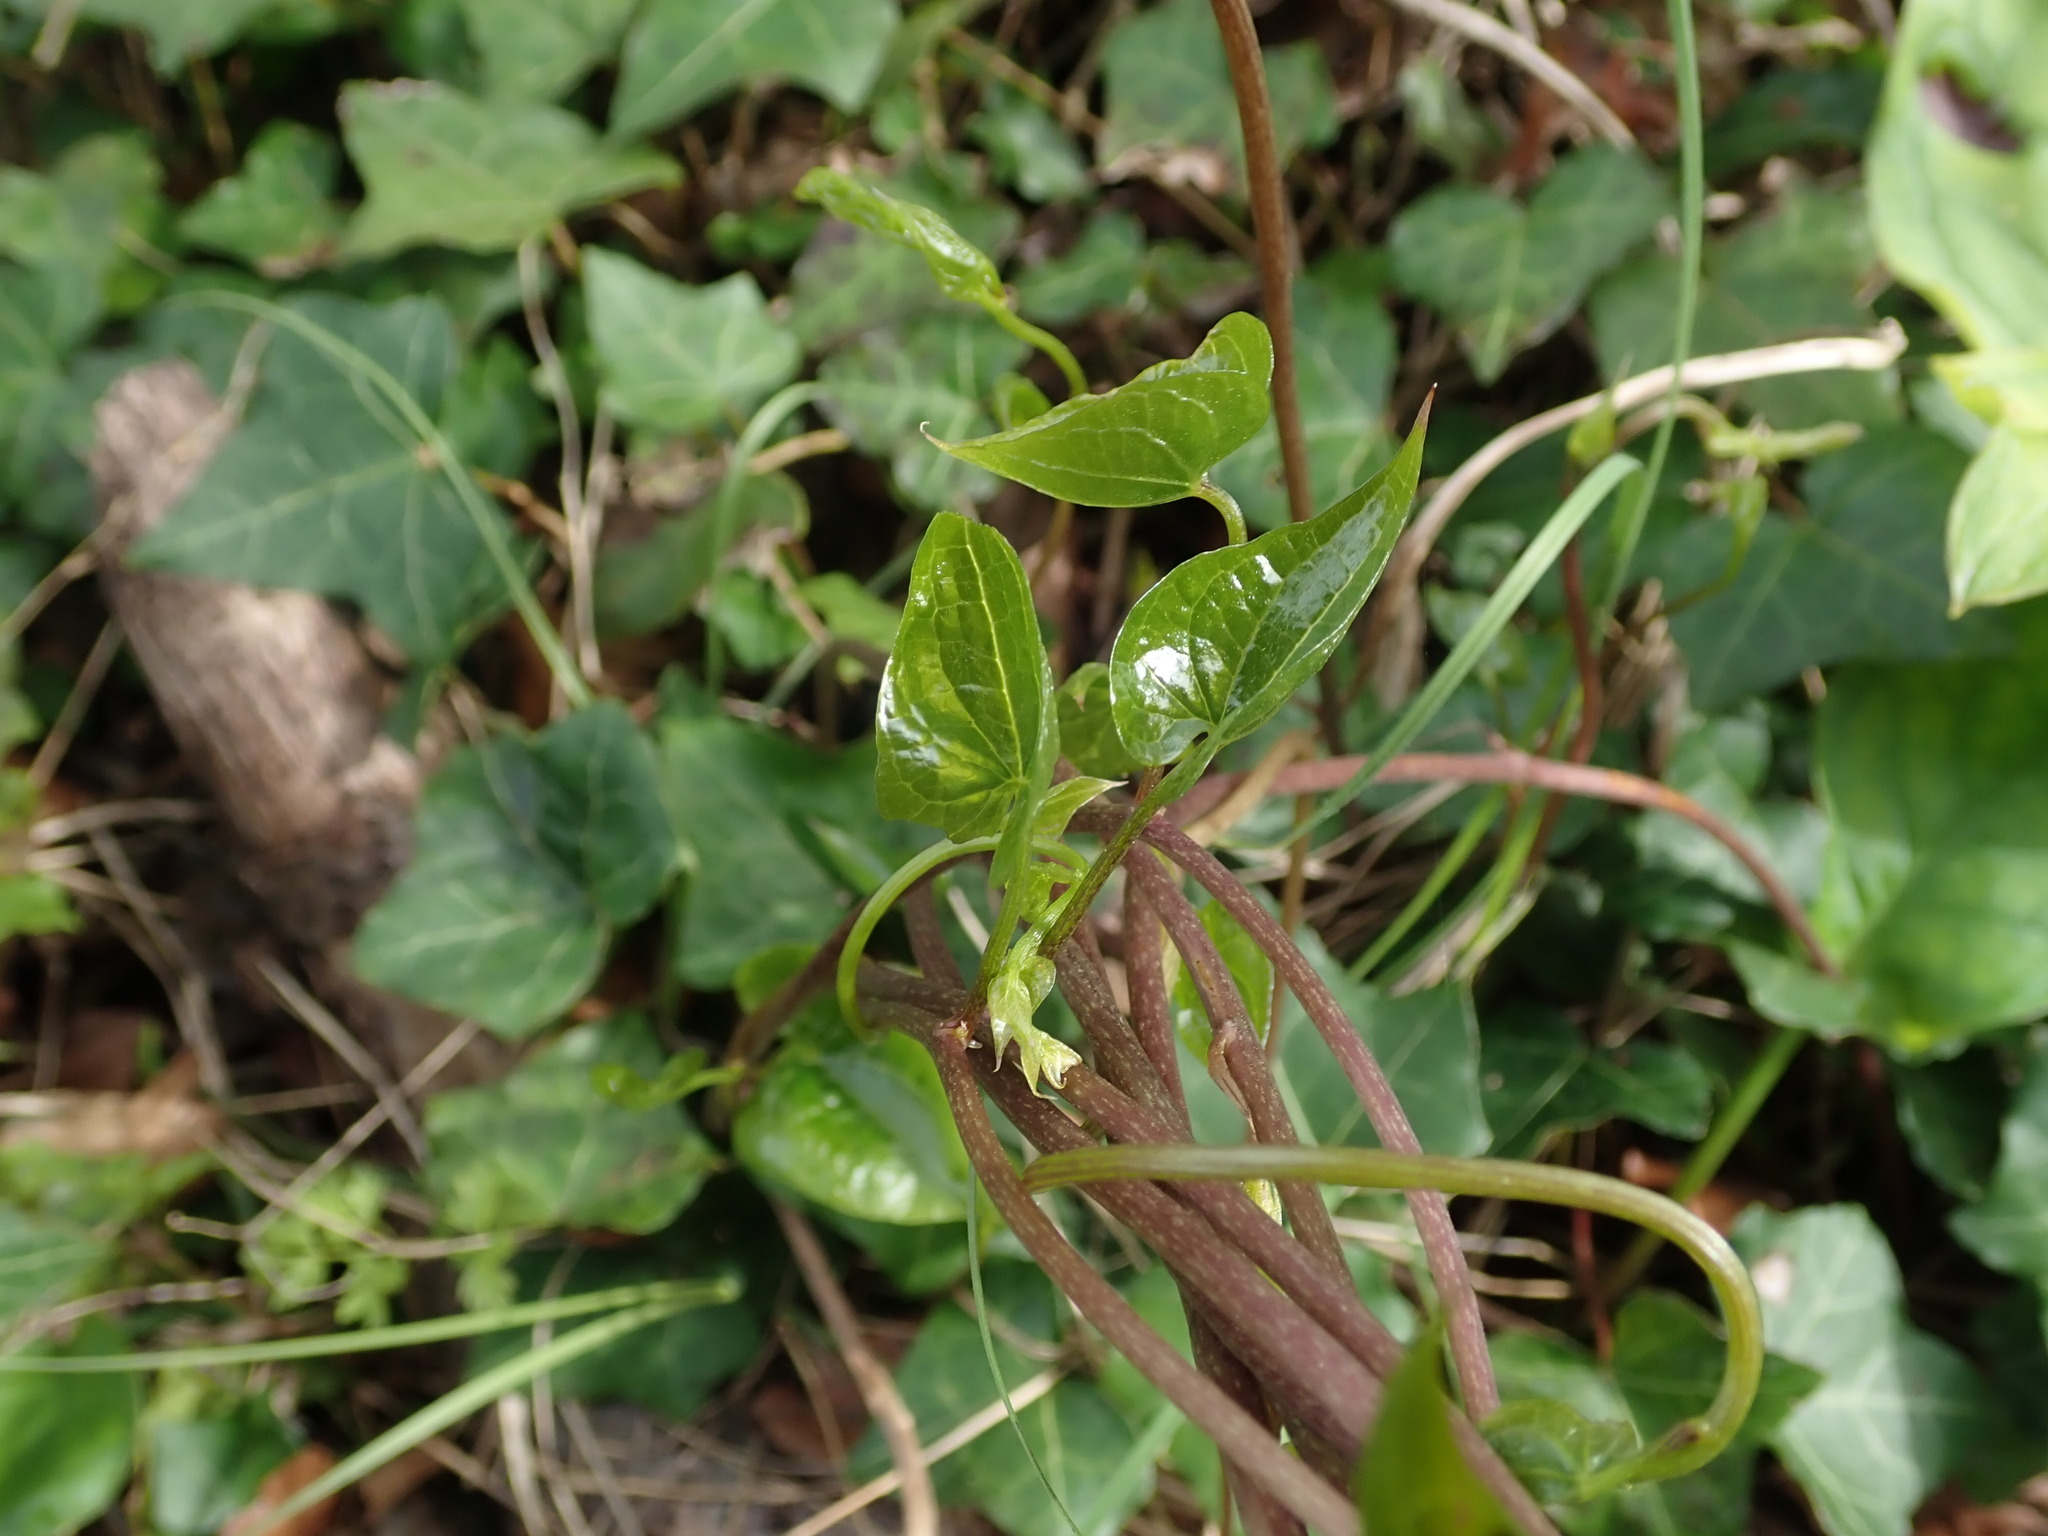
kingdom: Plantae
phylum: Tracheophyta
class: Liliopsida
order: Dioscoreales
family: Dioscoreaceae
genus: Dioscorea
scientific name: Dioscorea communis
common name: Black-bindweed
